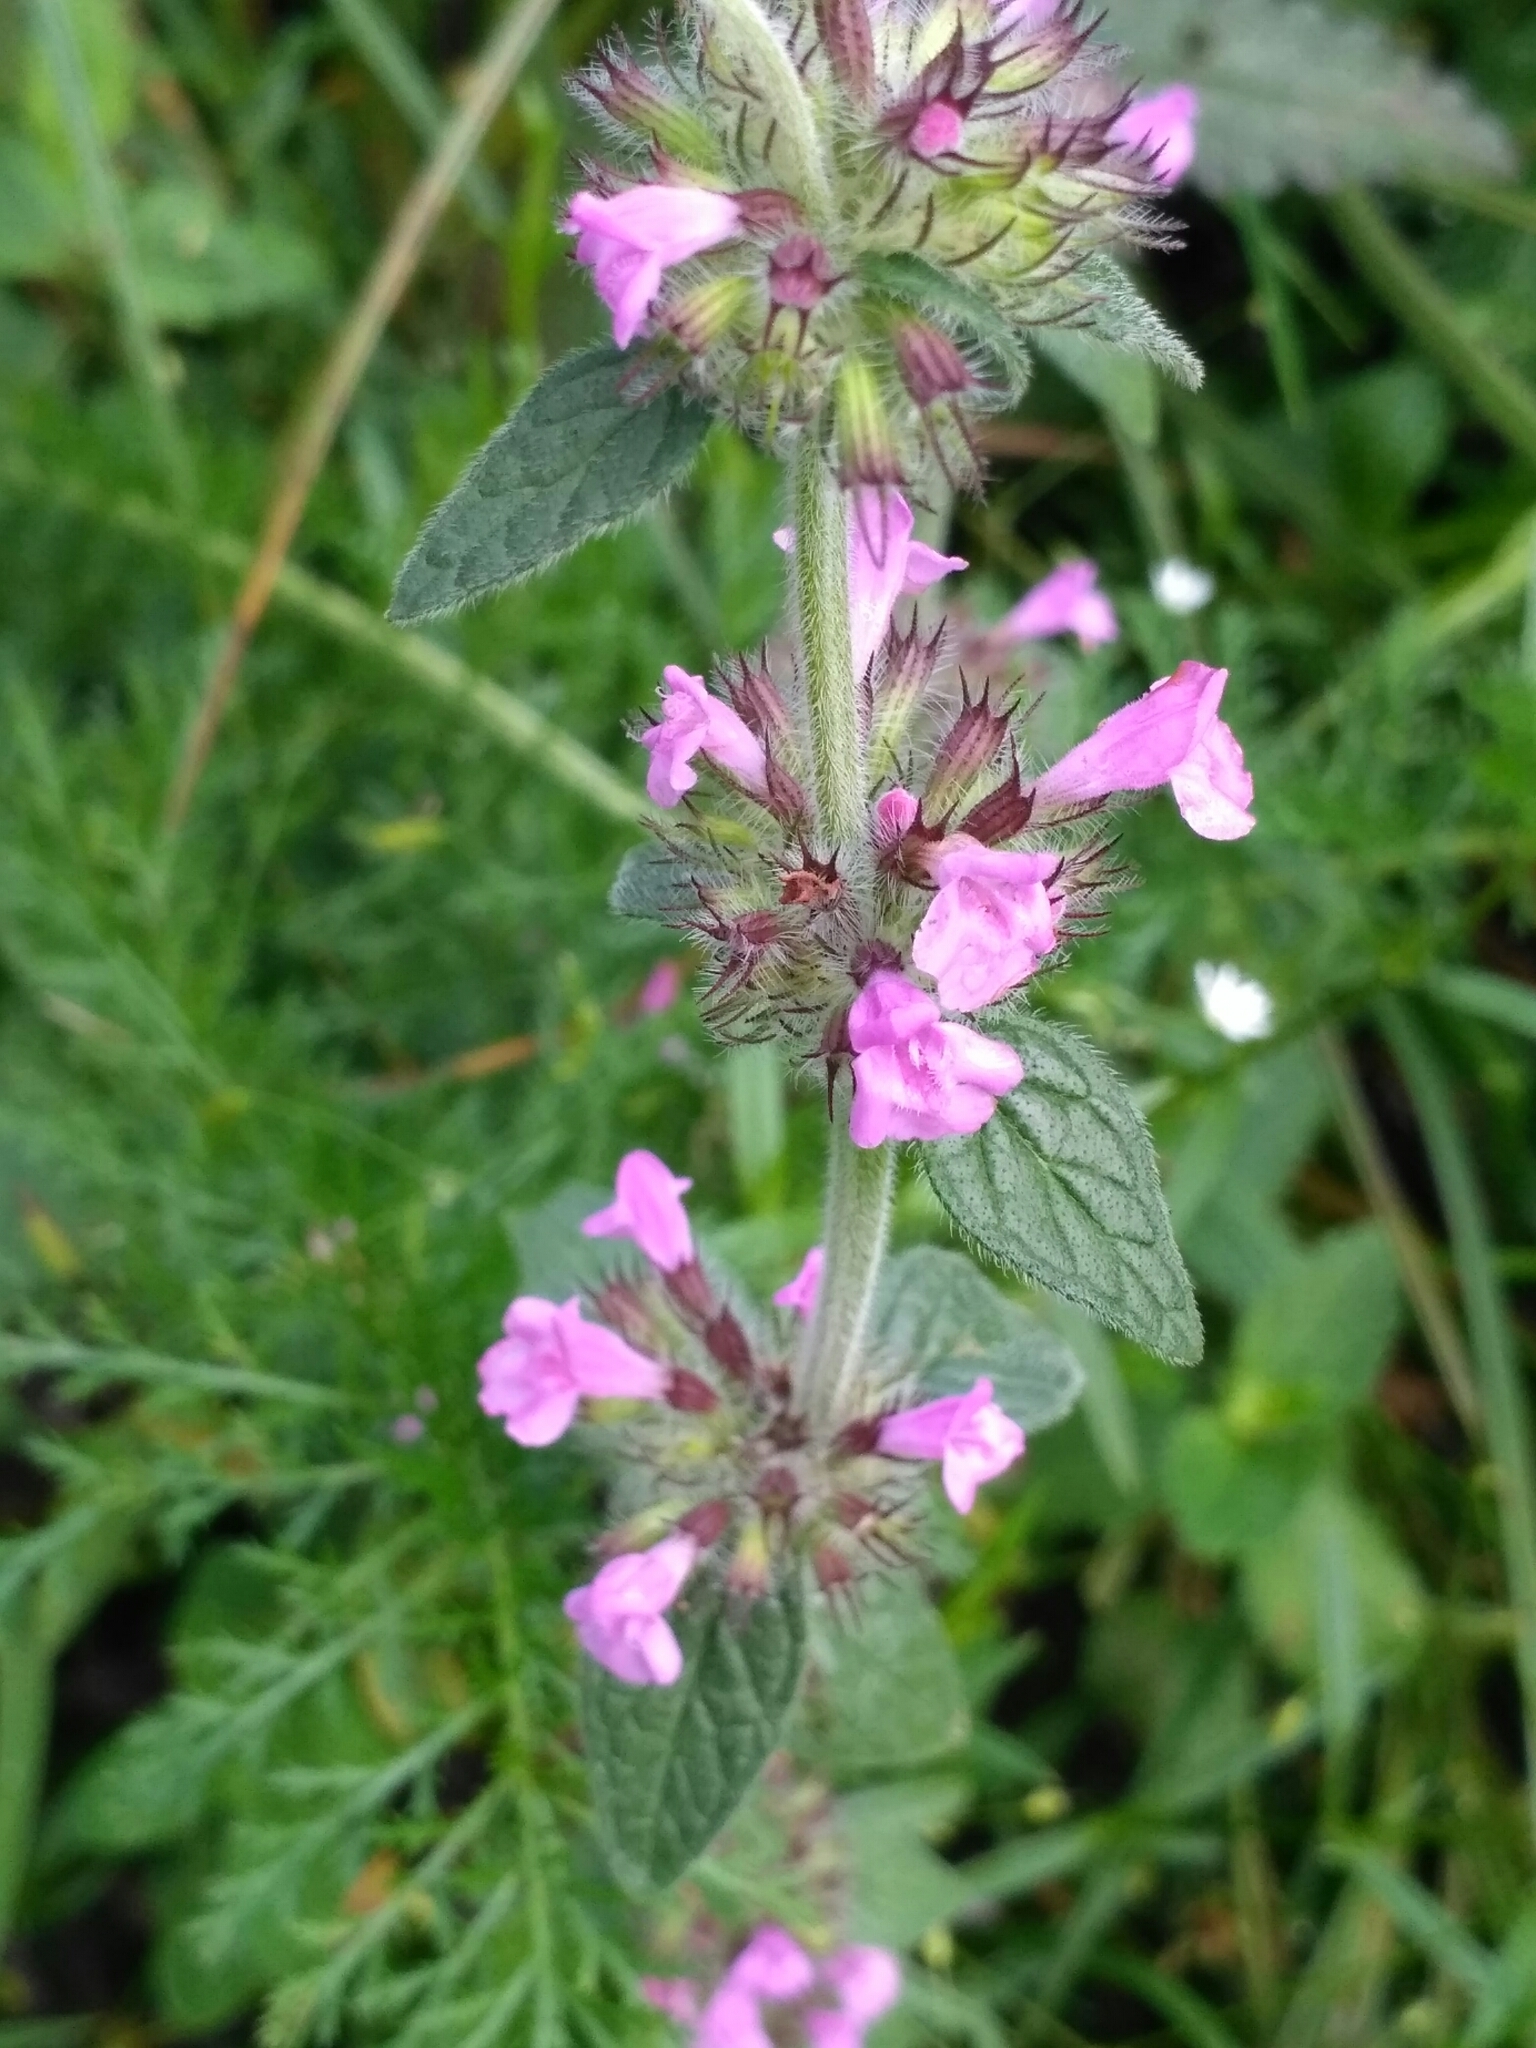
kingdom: Plantae
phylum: Tracheophyta
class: Magnoliopsida
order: Lamiales
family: Lamiaceae
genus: Clinopodium
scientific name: Clinopodium vulgare
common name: Wild basil
